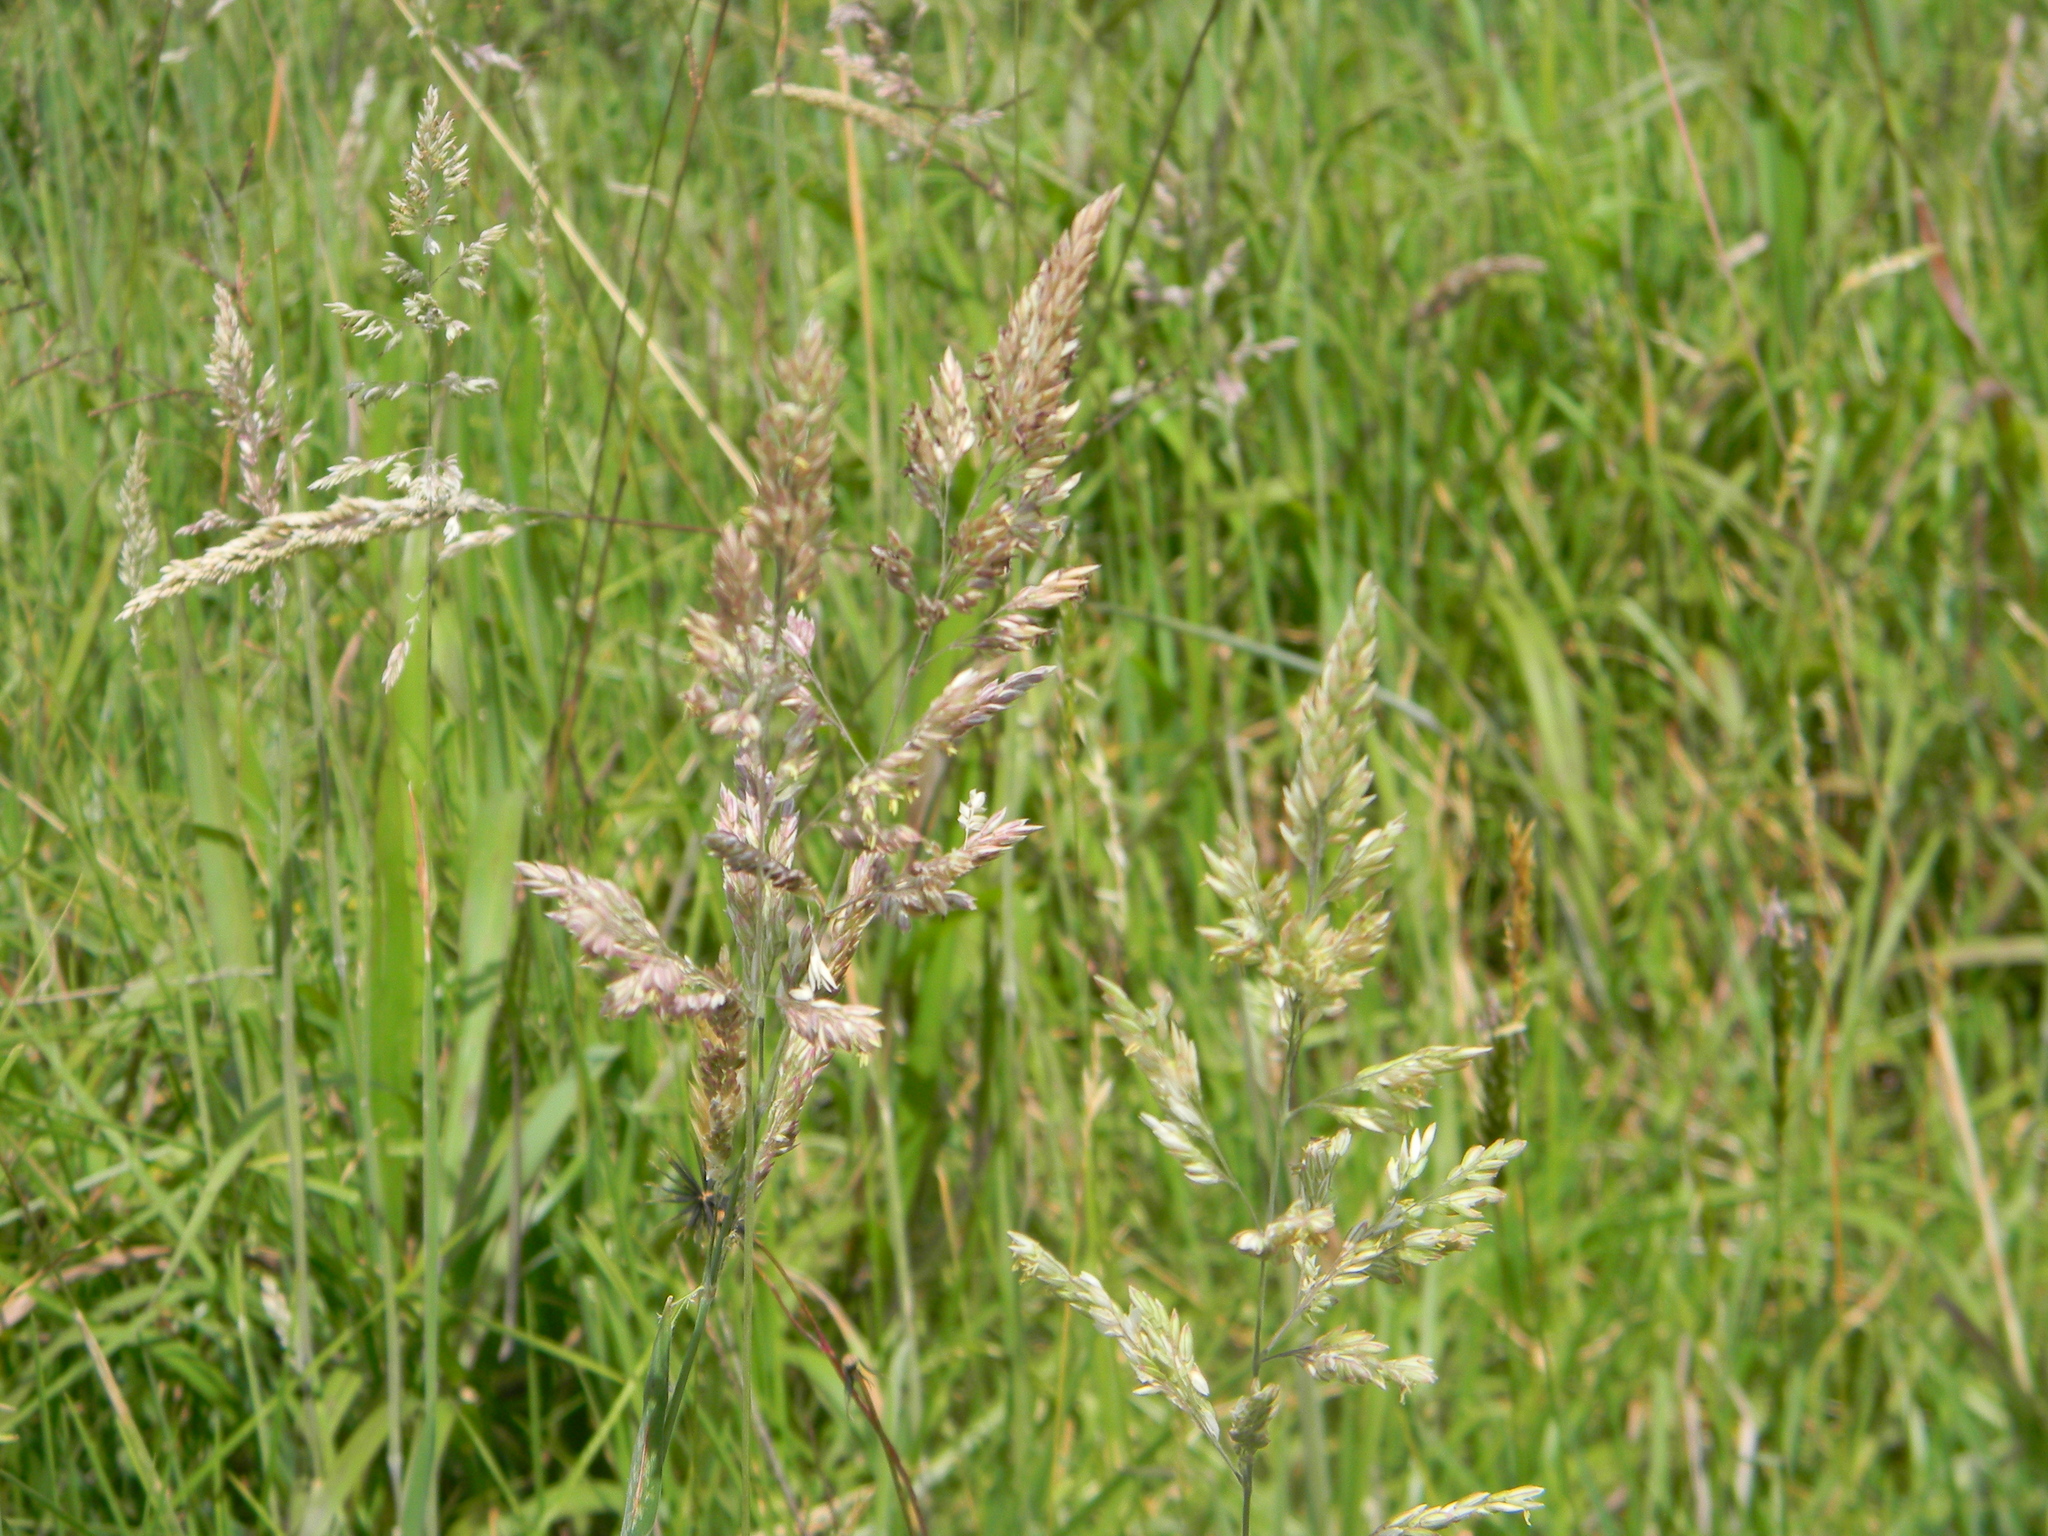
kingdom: Plantae
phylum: Tracheophyta
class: Liliopsida
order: Poales
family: Poaceae
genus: Holcus
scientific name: Holcus lanatus
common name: Yorkshire-fog
